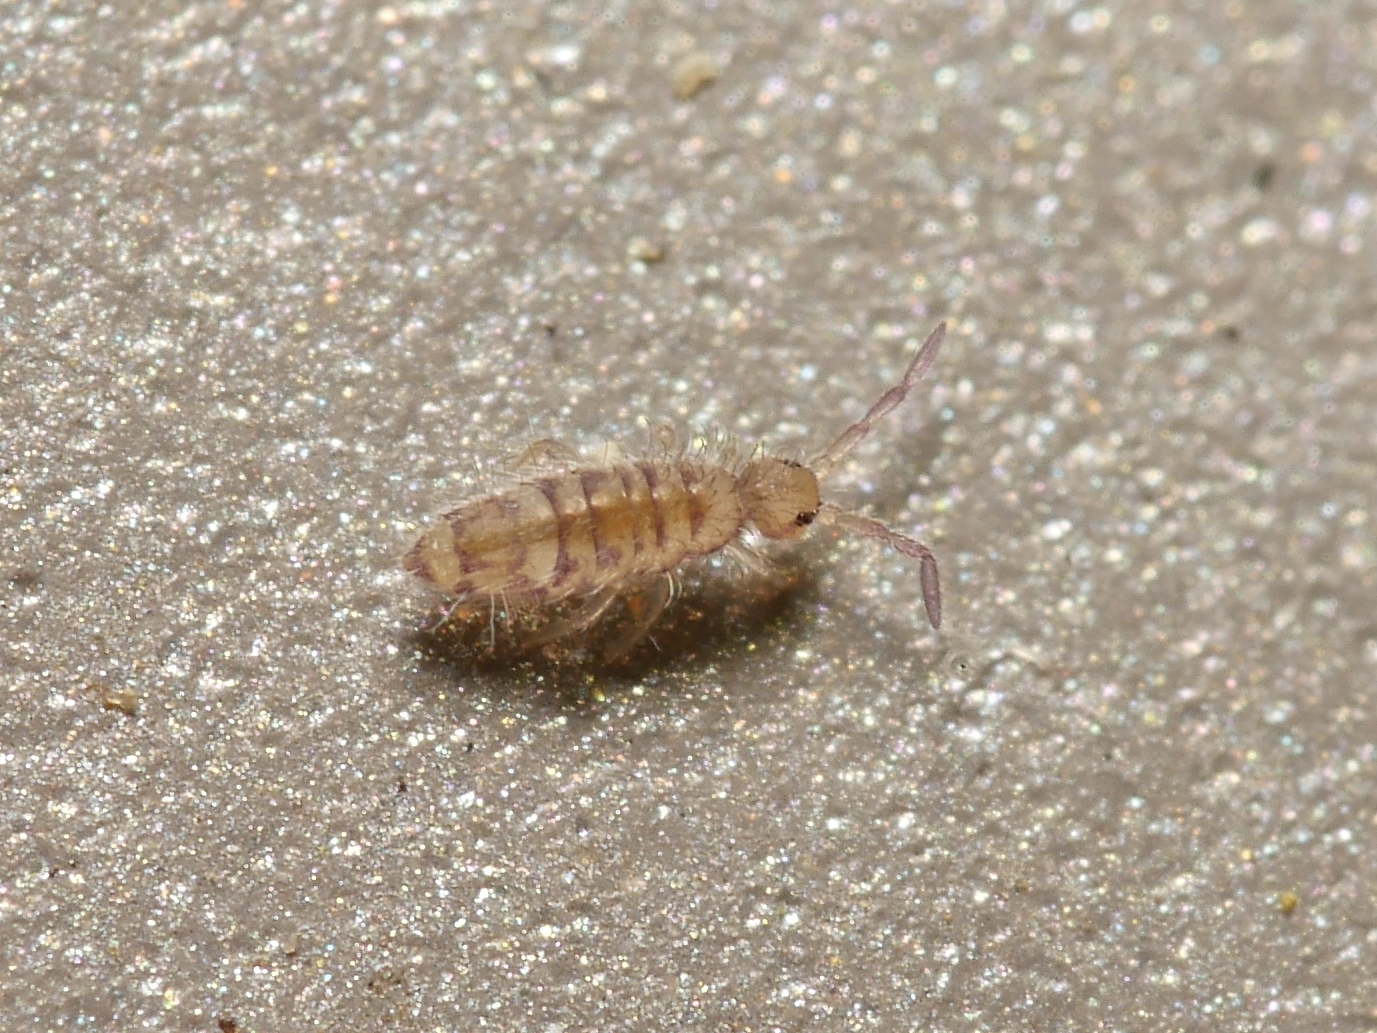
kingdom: Animalia
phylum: Arthropoda
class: Collembola
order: Entomobryomorpha
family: Entomobryidae
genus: Entomobrya
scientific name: Entomobrya multifasciata
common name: Springtail
